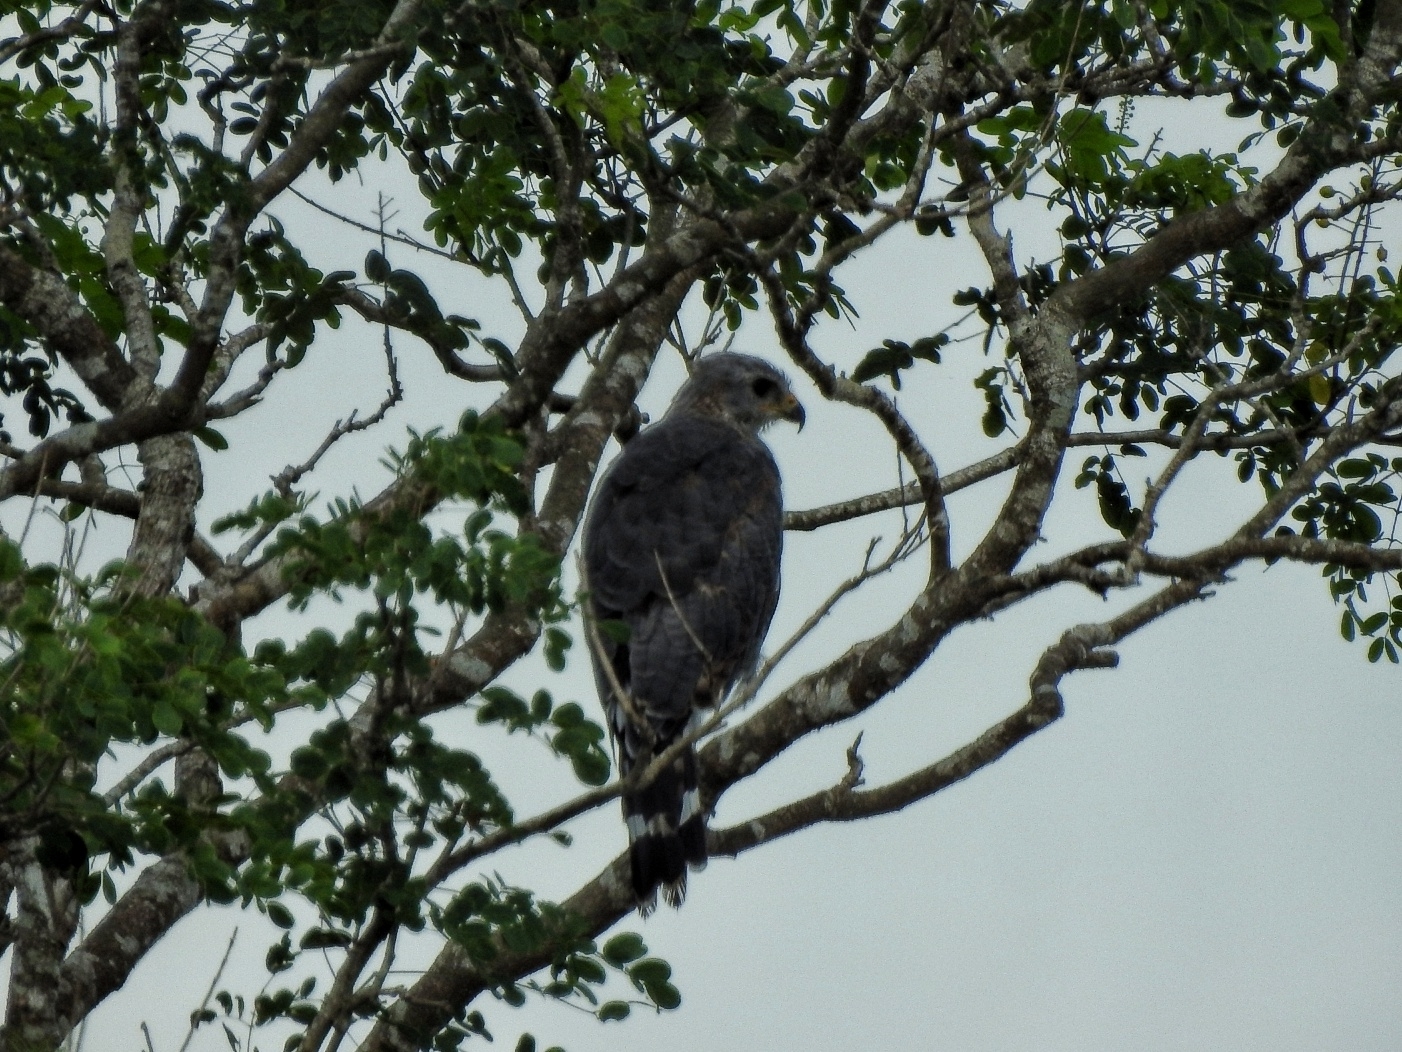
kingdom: Animalia
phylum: Chordata
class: Aves
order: Accipitriformes
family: Accipitridae
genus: Buteo
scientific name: Buteo nitidus
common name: Grey-lined hawk
